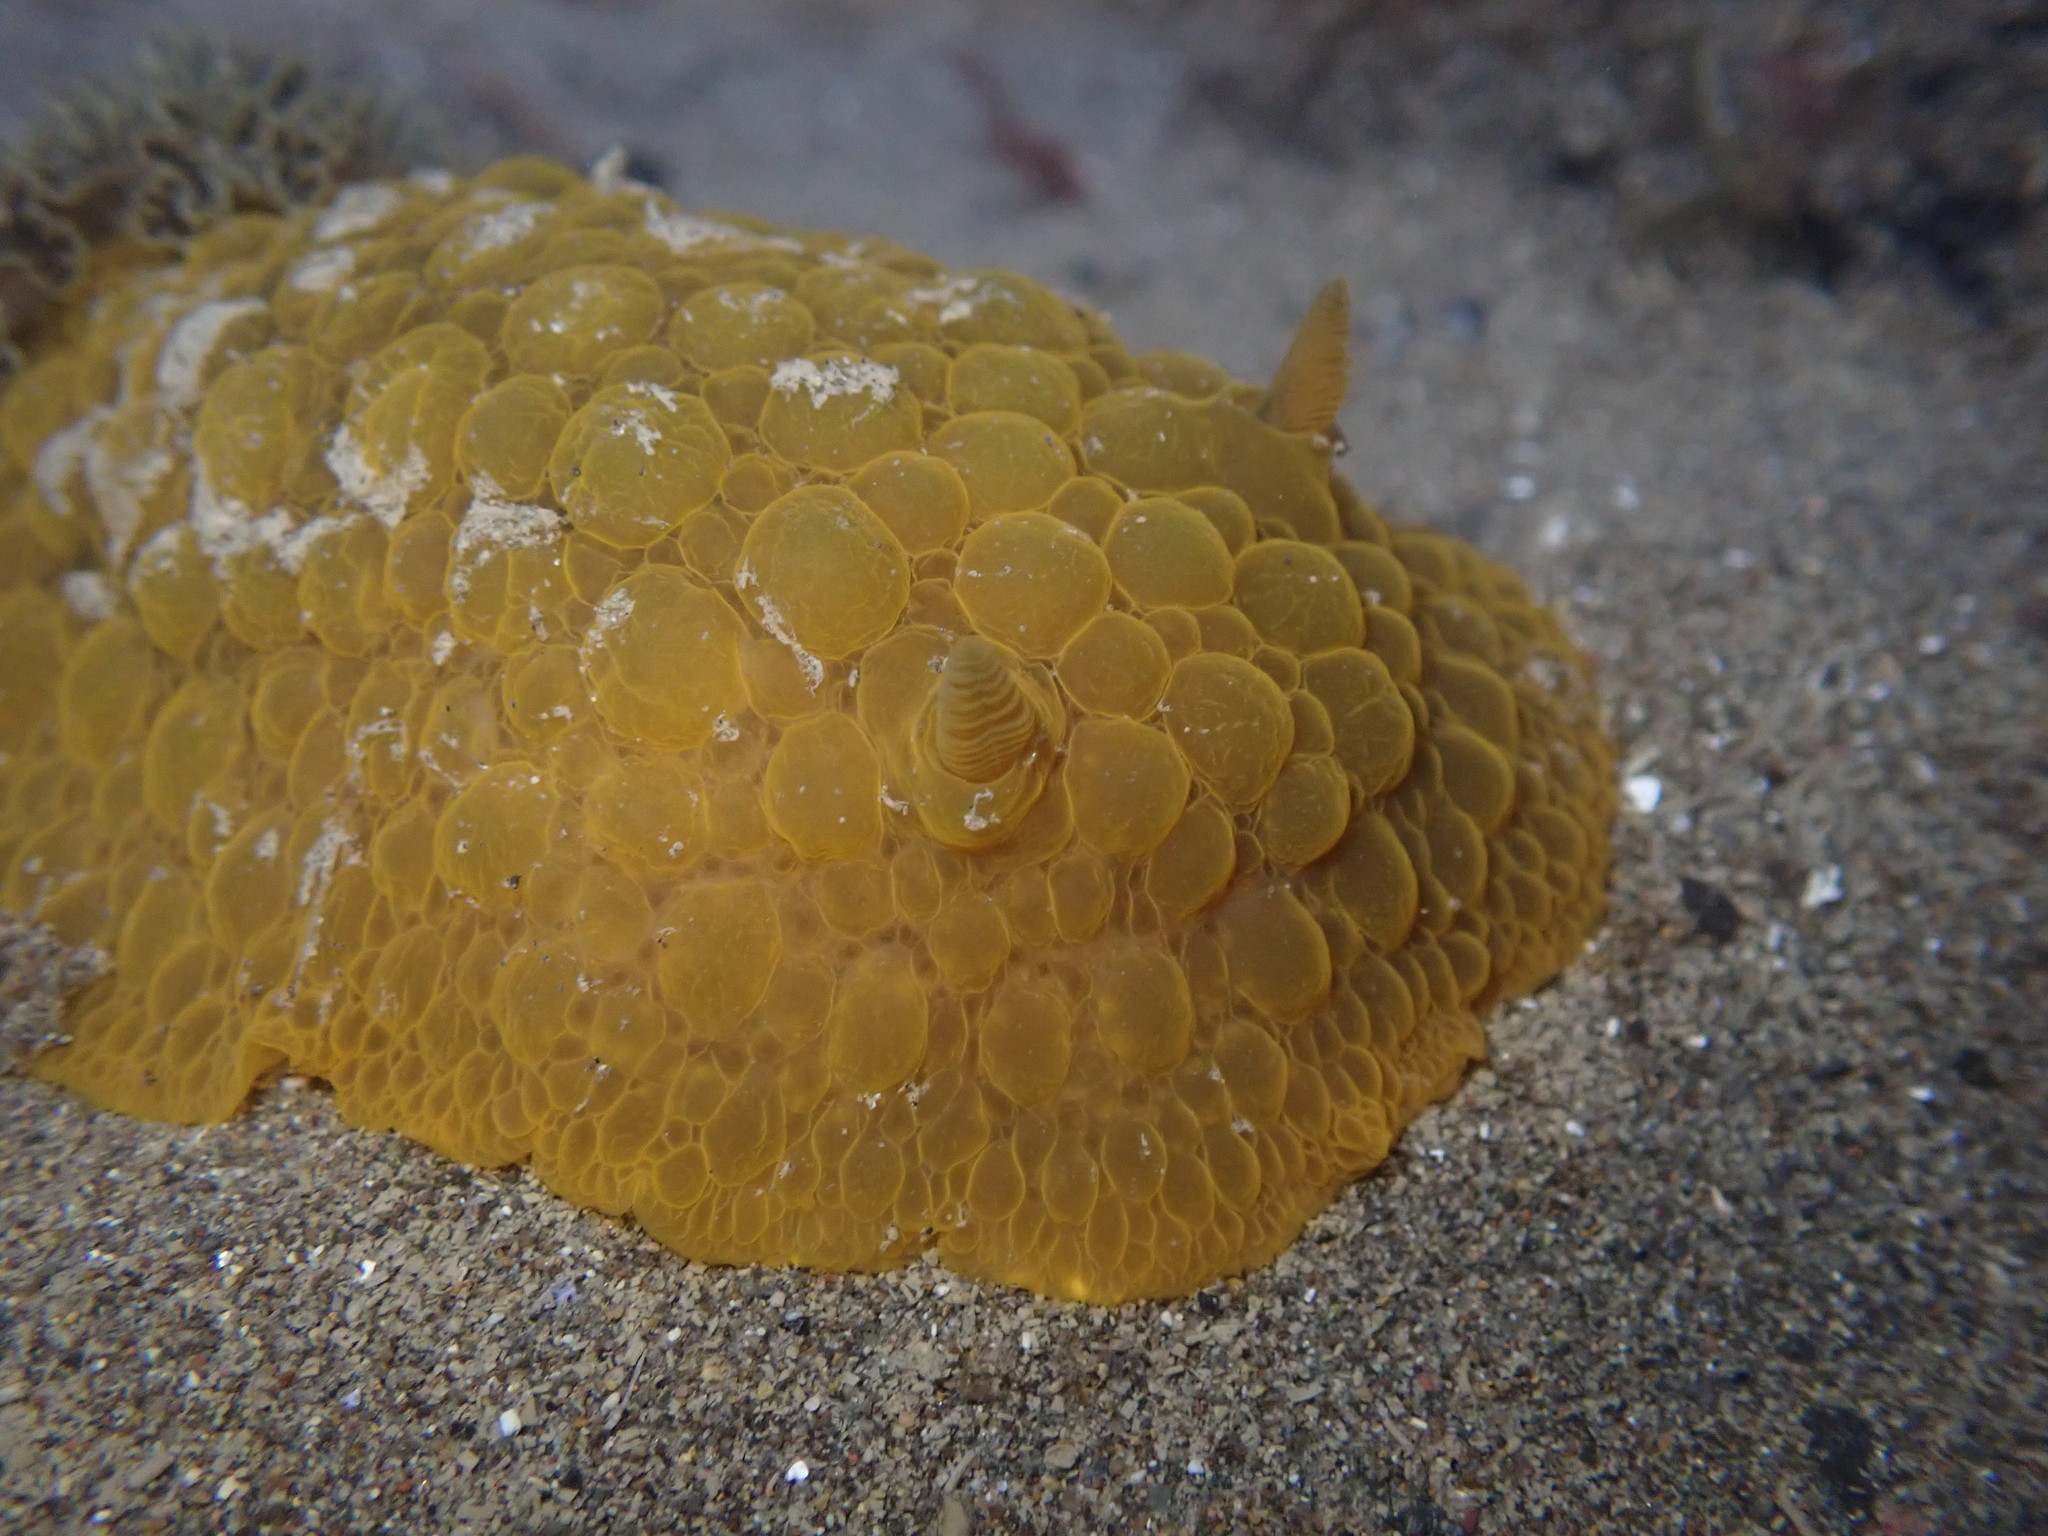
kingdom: Animalia
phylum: Mollusca
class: Gastropoda
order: Nudibranchia
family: Dorididae
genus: Doris
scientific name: Doris wellingtonensis
